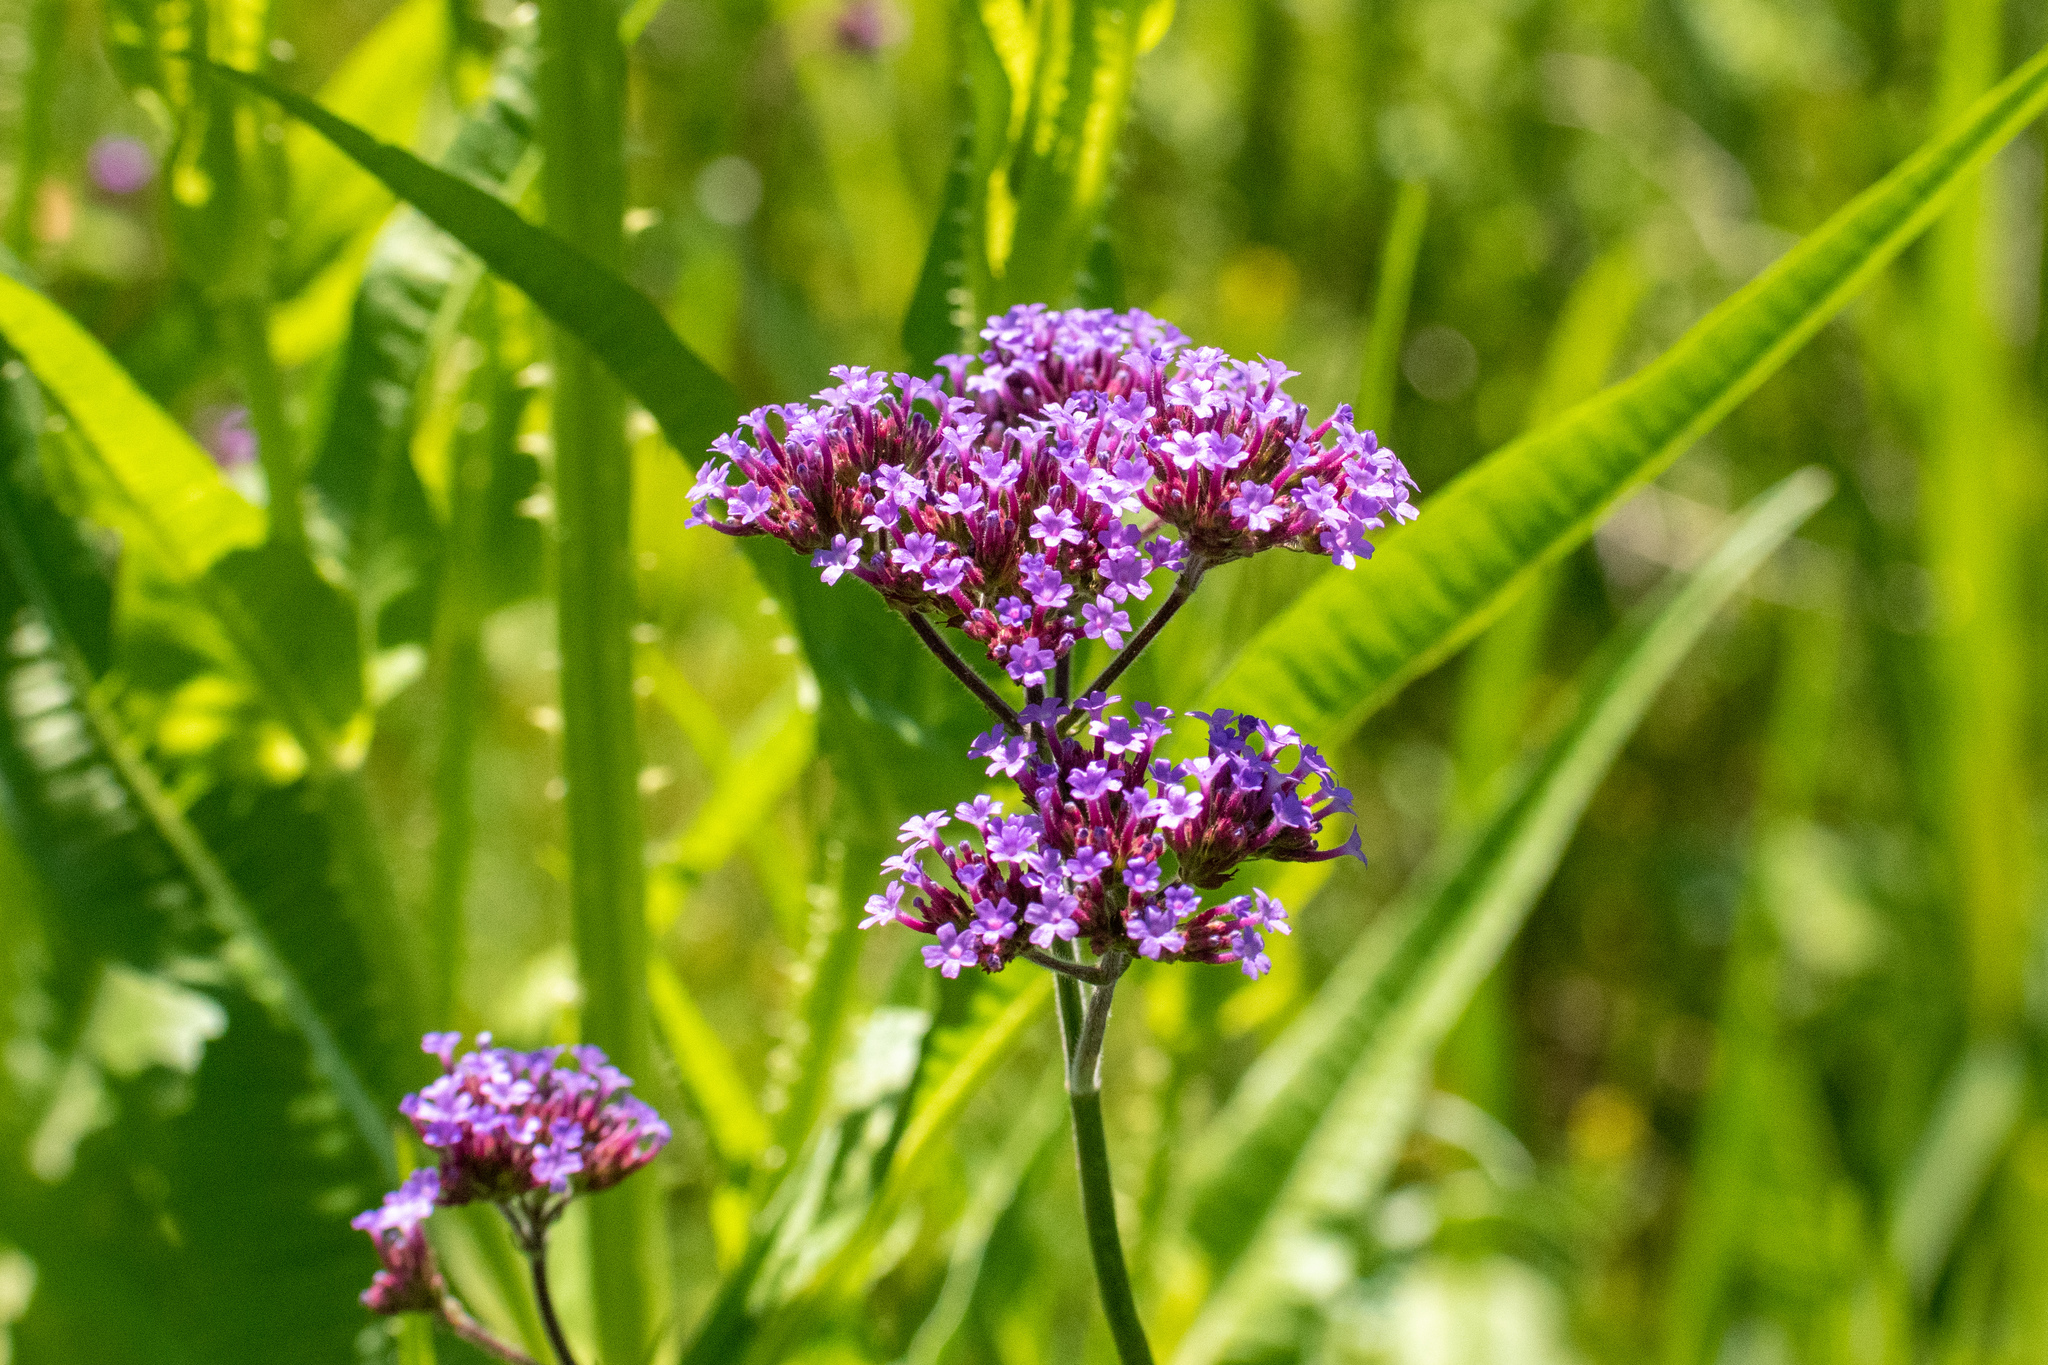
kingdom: Plantae
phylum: Tracheophyta
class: Magnoliopsida
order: Lamiales
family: Verbenaceae
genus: Verbena
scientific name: Verbena bonariensis
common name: Purpletop vervain
